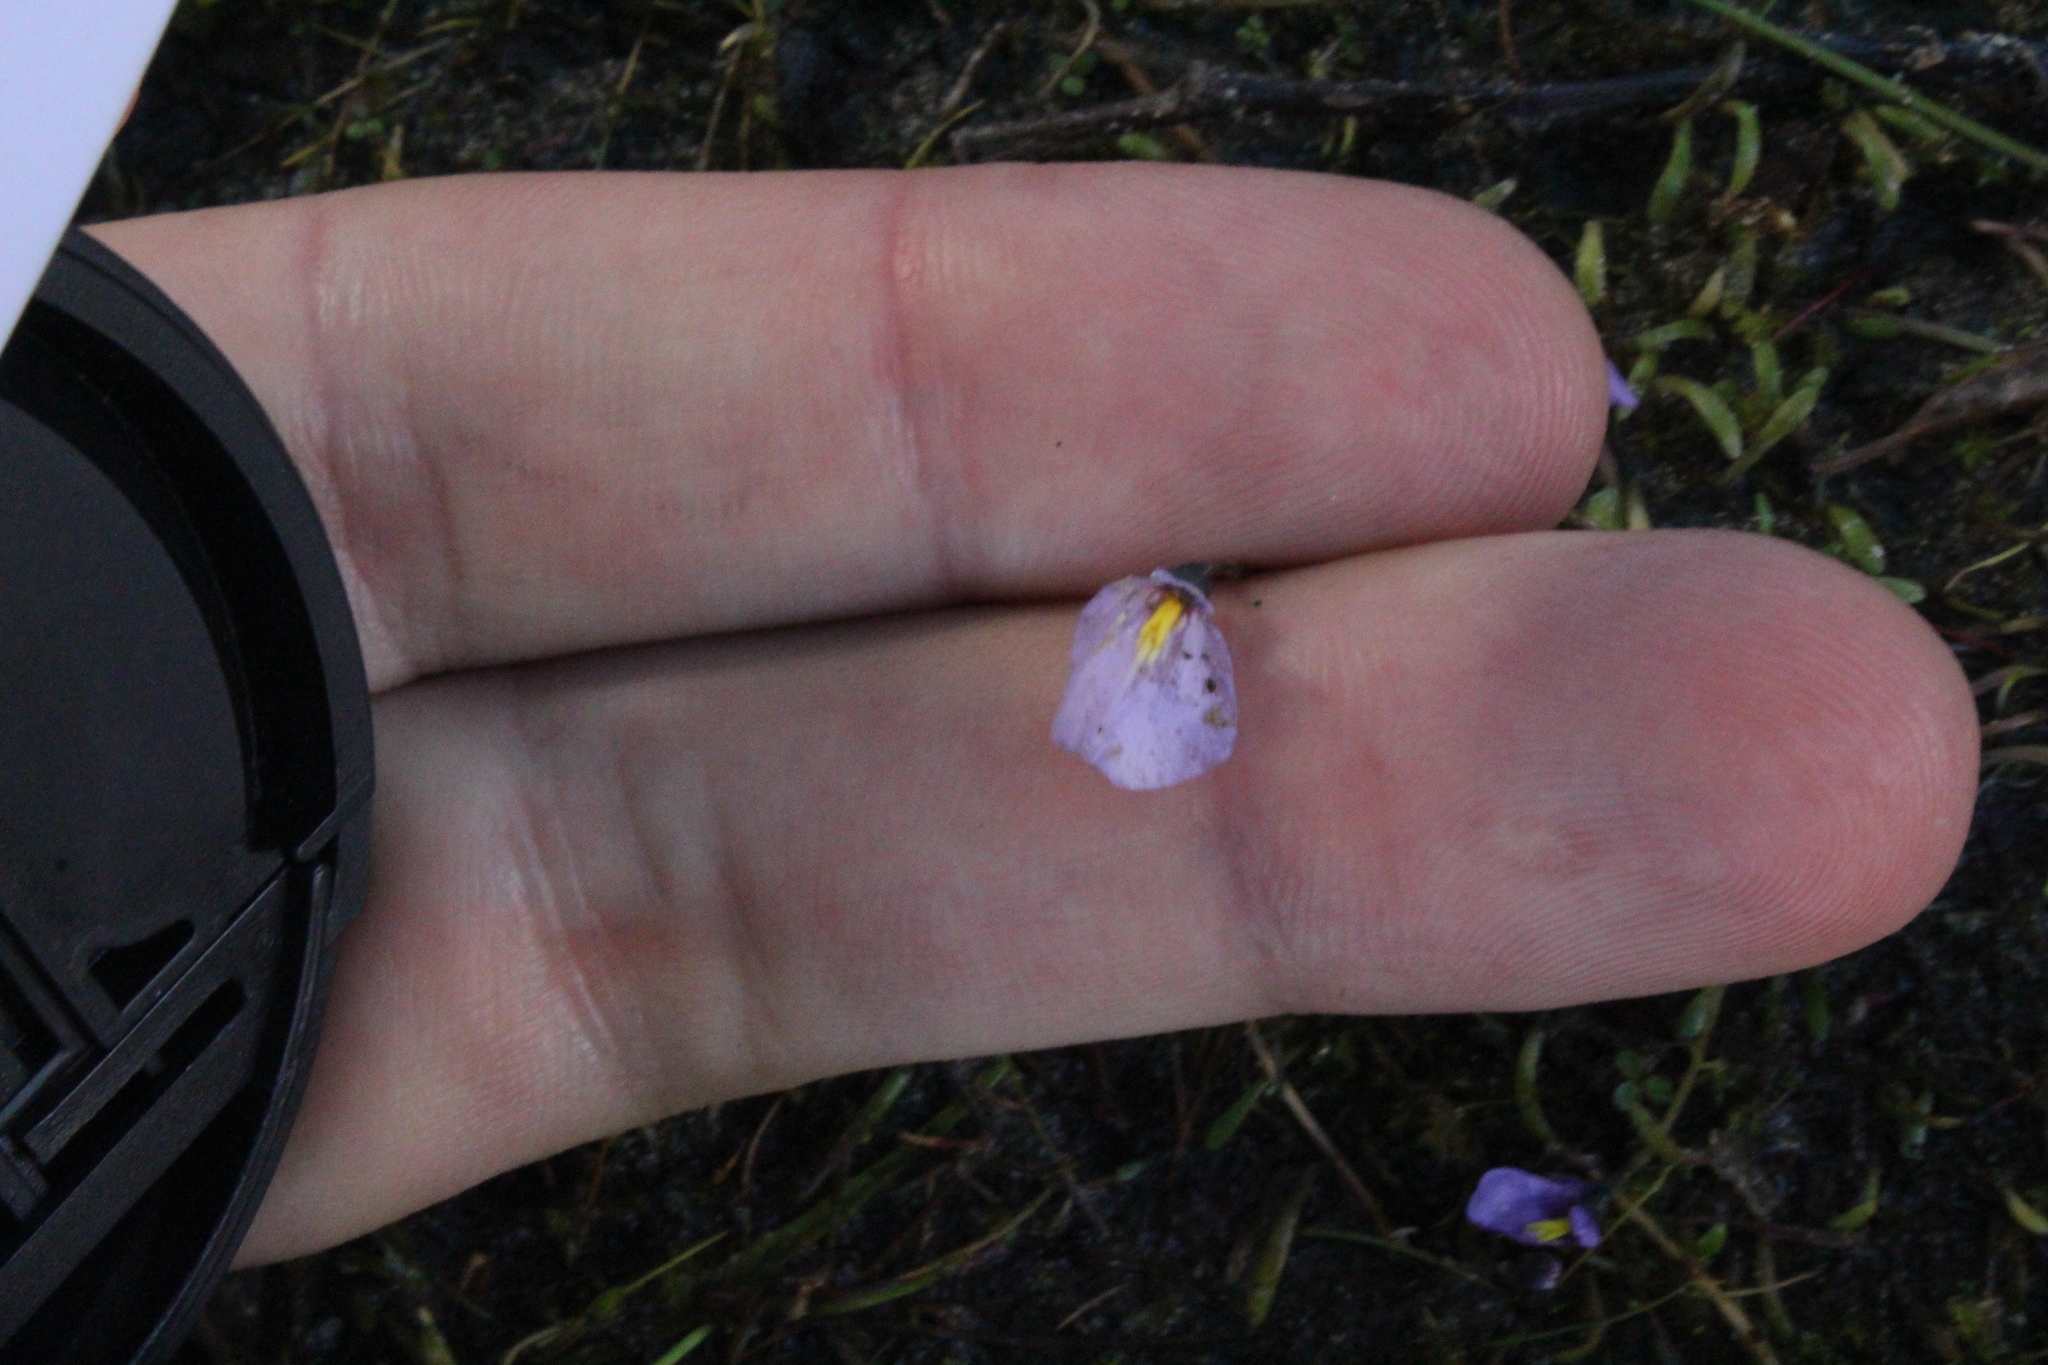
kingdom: Plantae
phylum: Tracheophyta
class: Magnoliopsida
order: Lamiales
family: Lentibulariaceae
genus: Utricularia
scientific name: Utricularia dichotoma
